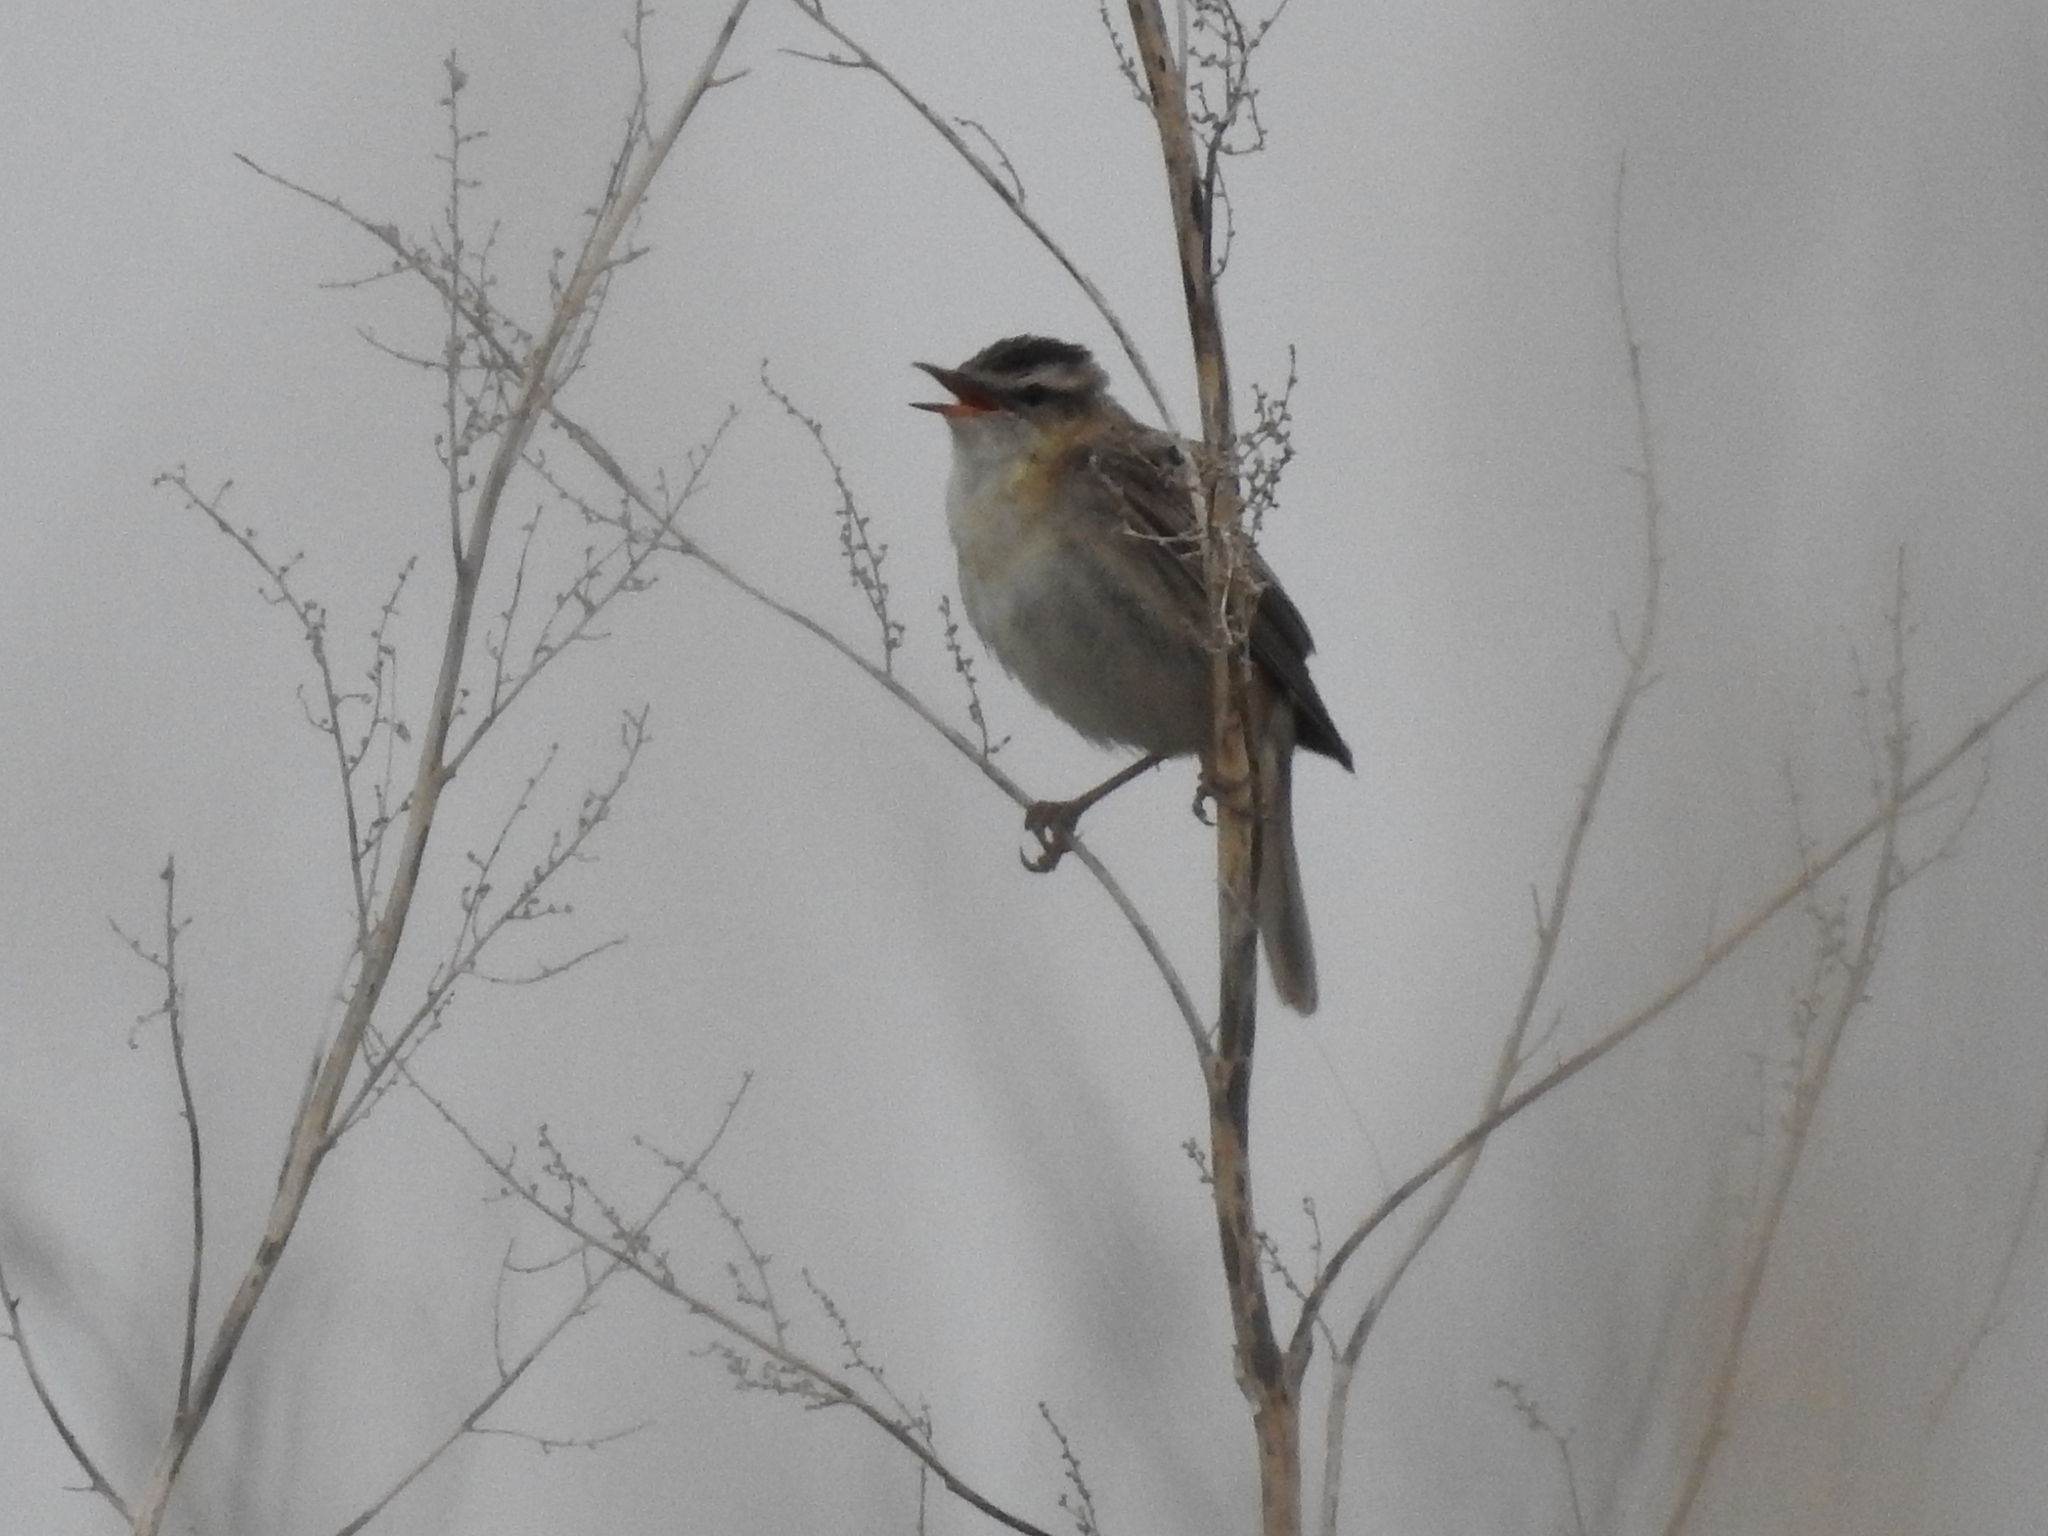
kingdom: Animalia
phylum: Chordata
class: Aves
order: Passeriformes
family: Acrocephalidae
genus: Acrocephalus
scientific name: Acrocephalus schoenobaenus
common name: Sedge warbler
